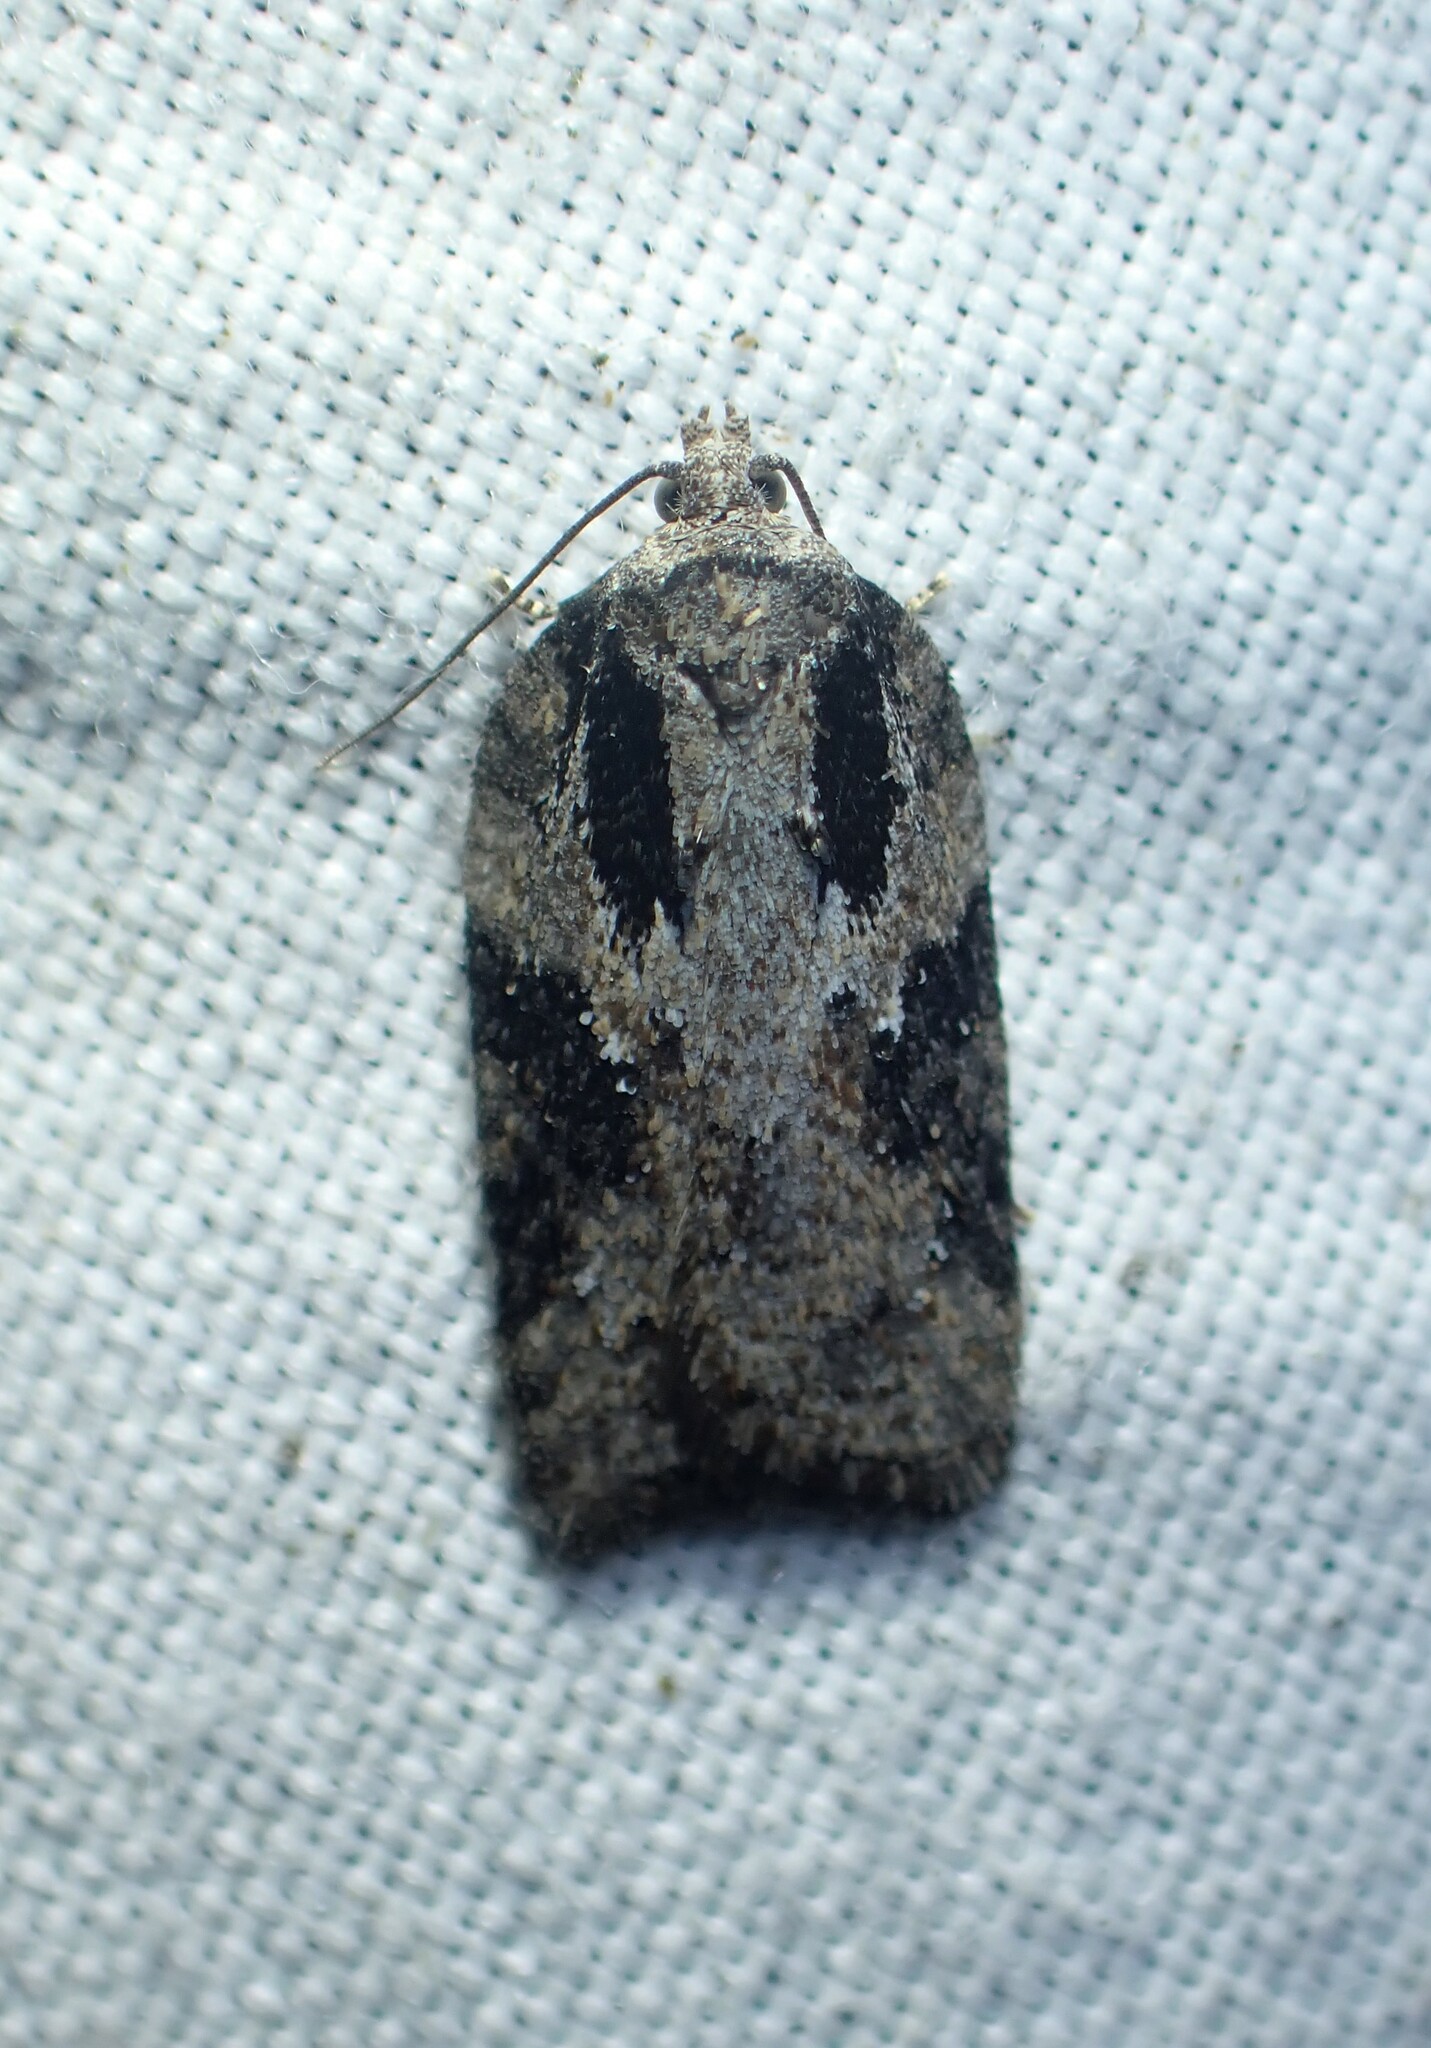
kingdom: Animalia
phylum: Arthropoda
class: Insecta
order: Lepidoptera
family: Tortricidae
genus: Acleris
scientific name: Acleris chalybeana
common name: Lesser maple leafroller
